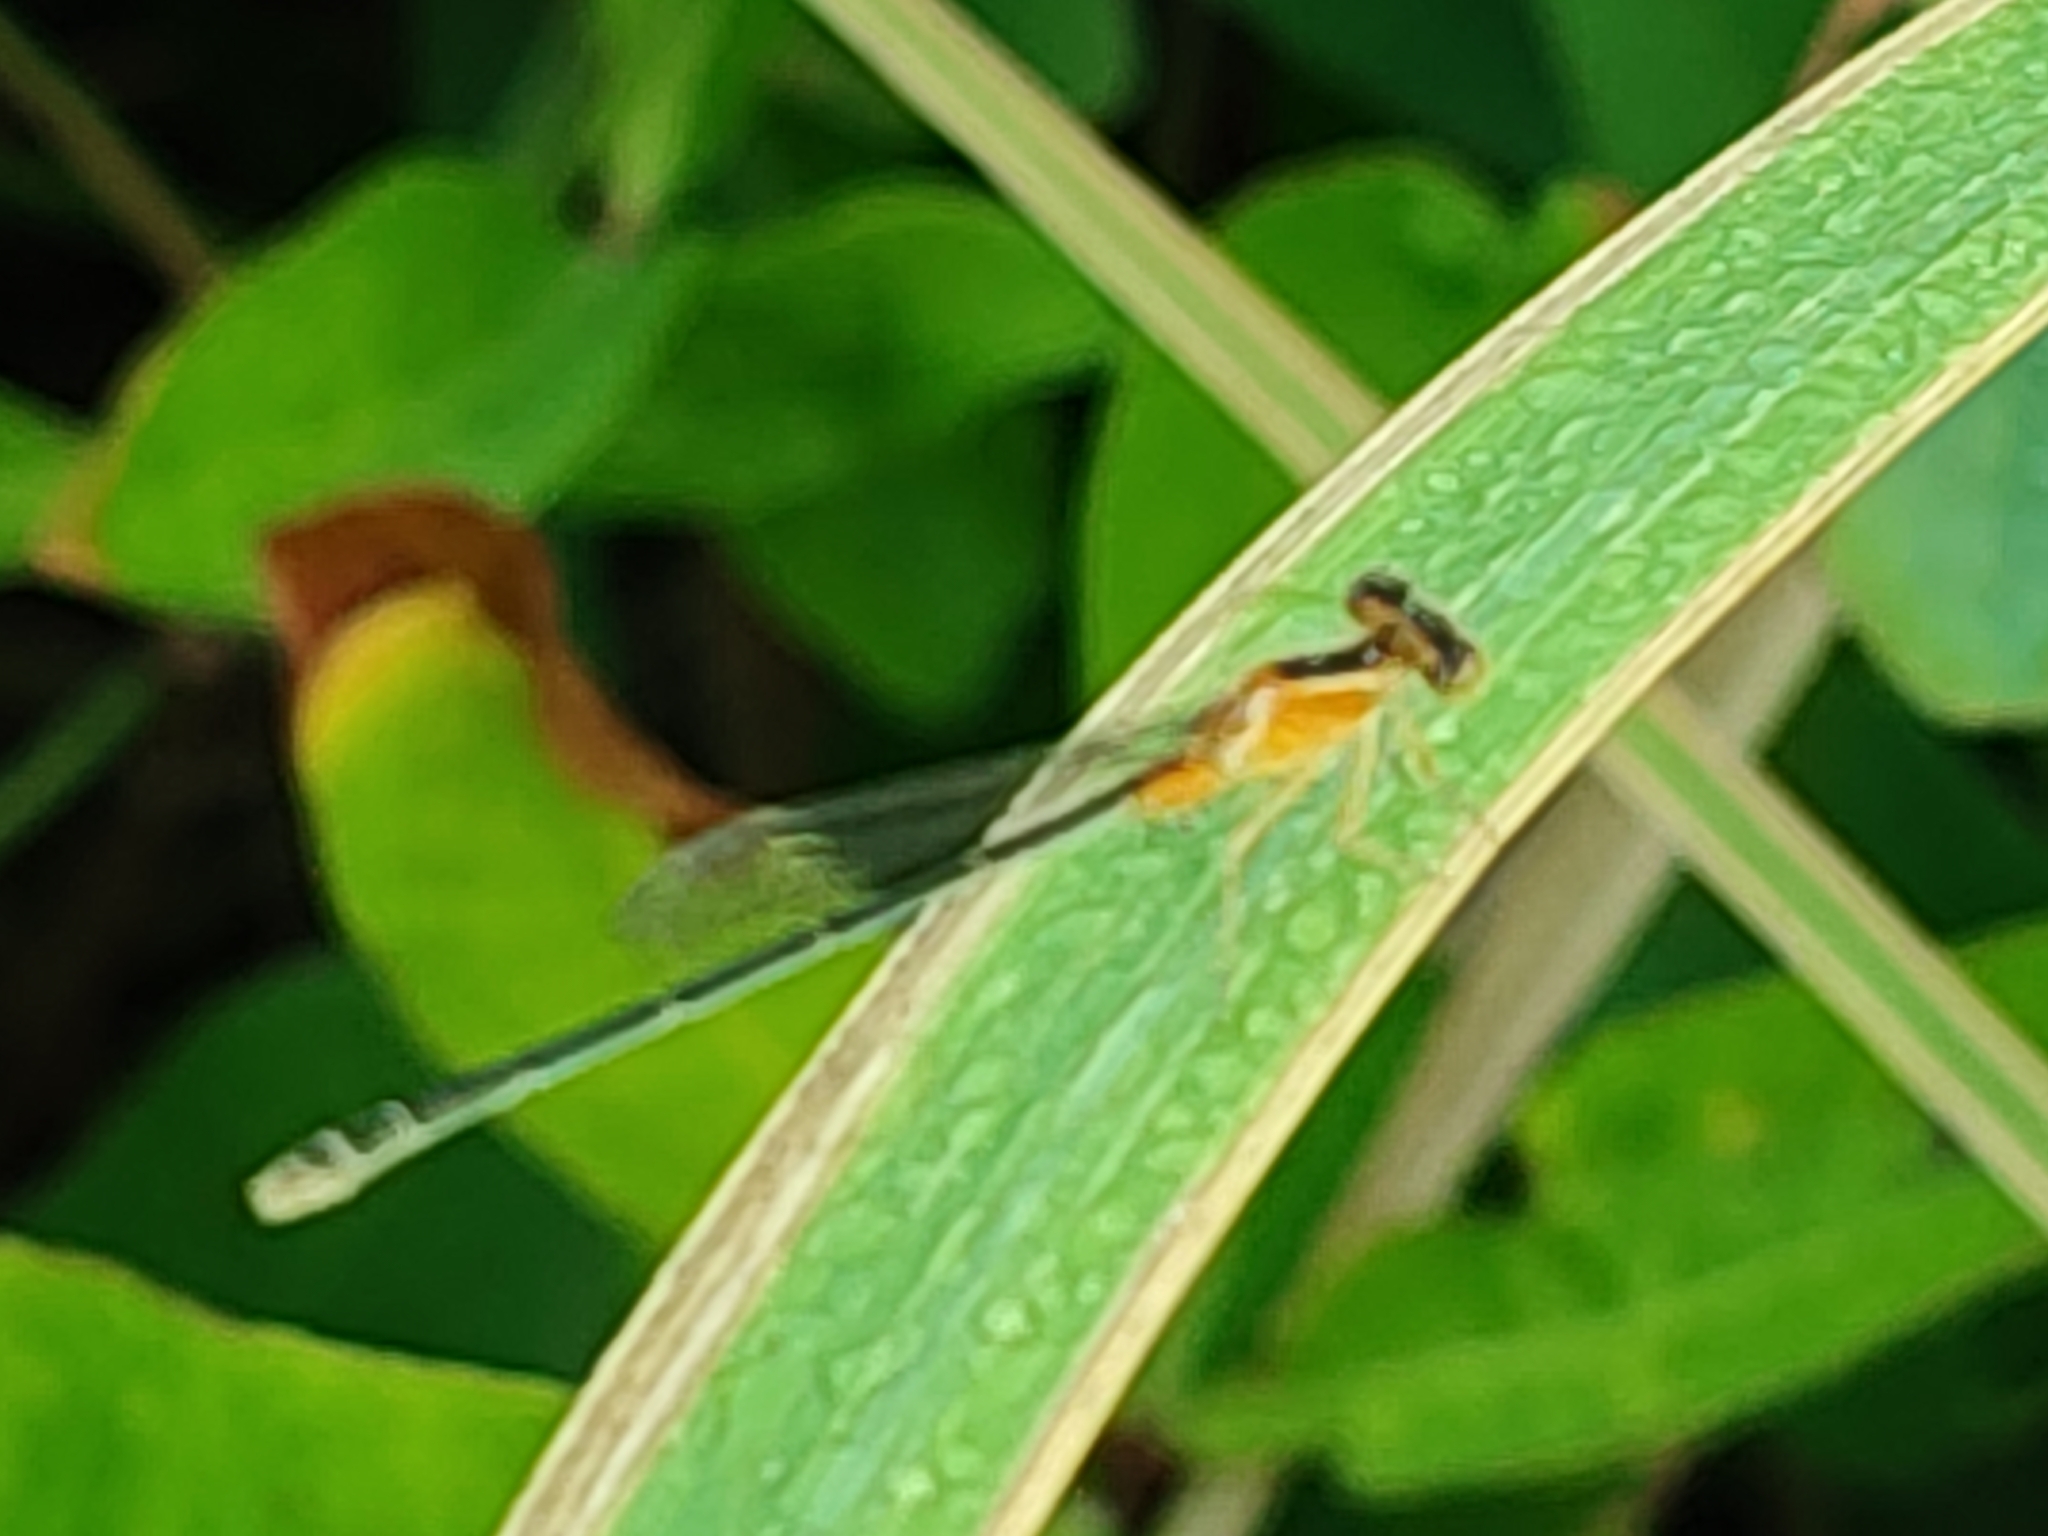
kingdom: Animalia
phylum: Arthropoda
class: Insecta
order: Odonata
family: Coenagrionidae
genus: Ischnura
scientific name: Ischnura senegalensis
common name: Tropical bluetail
